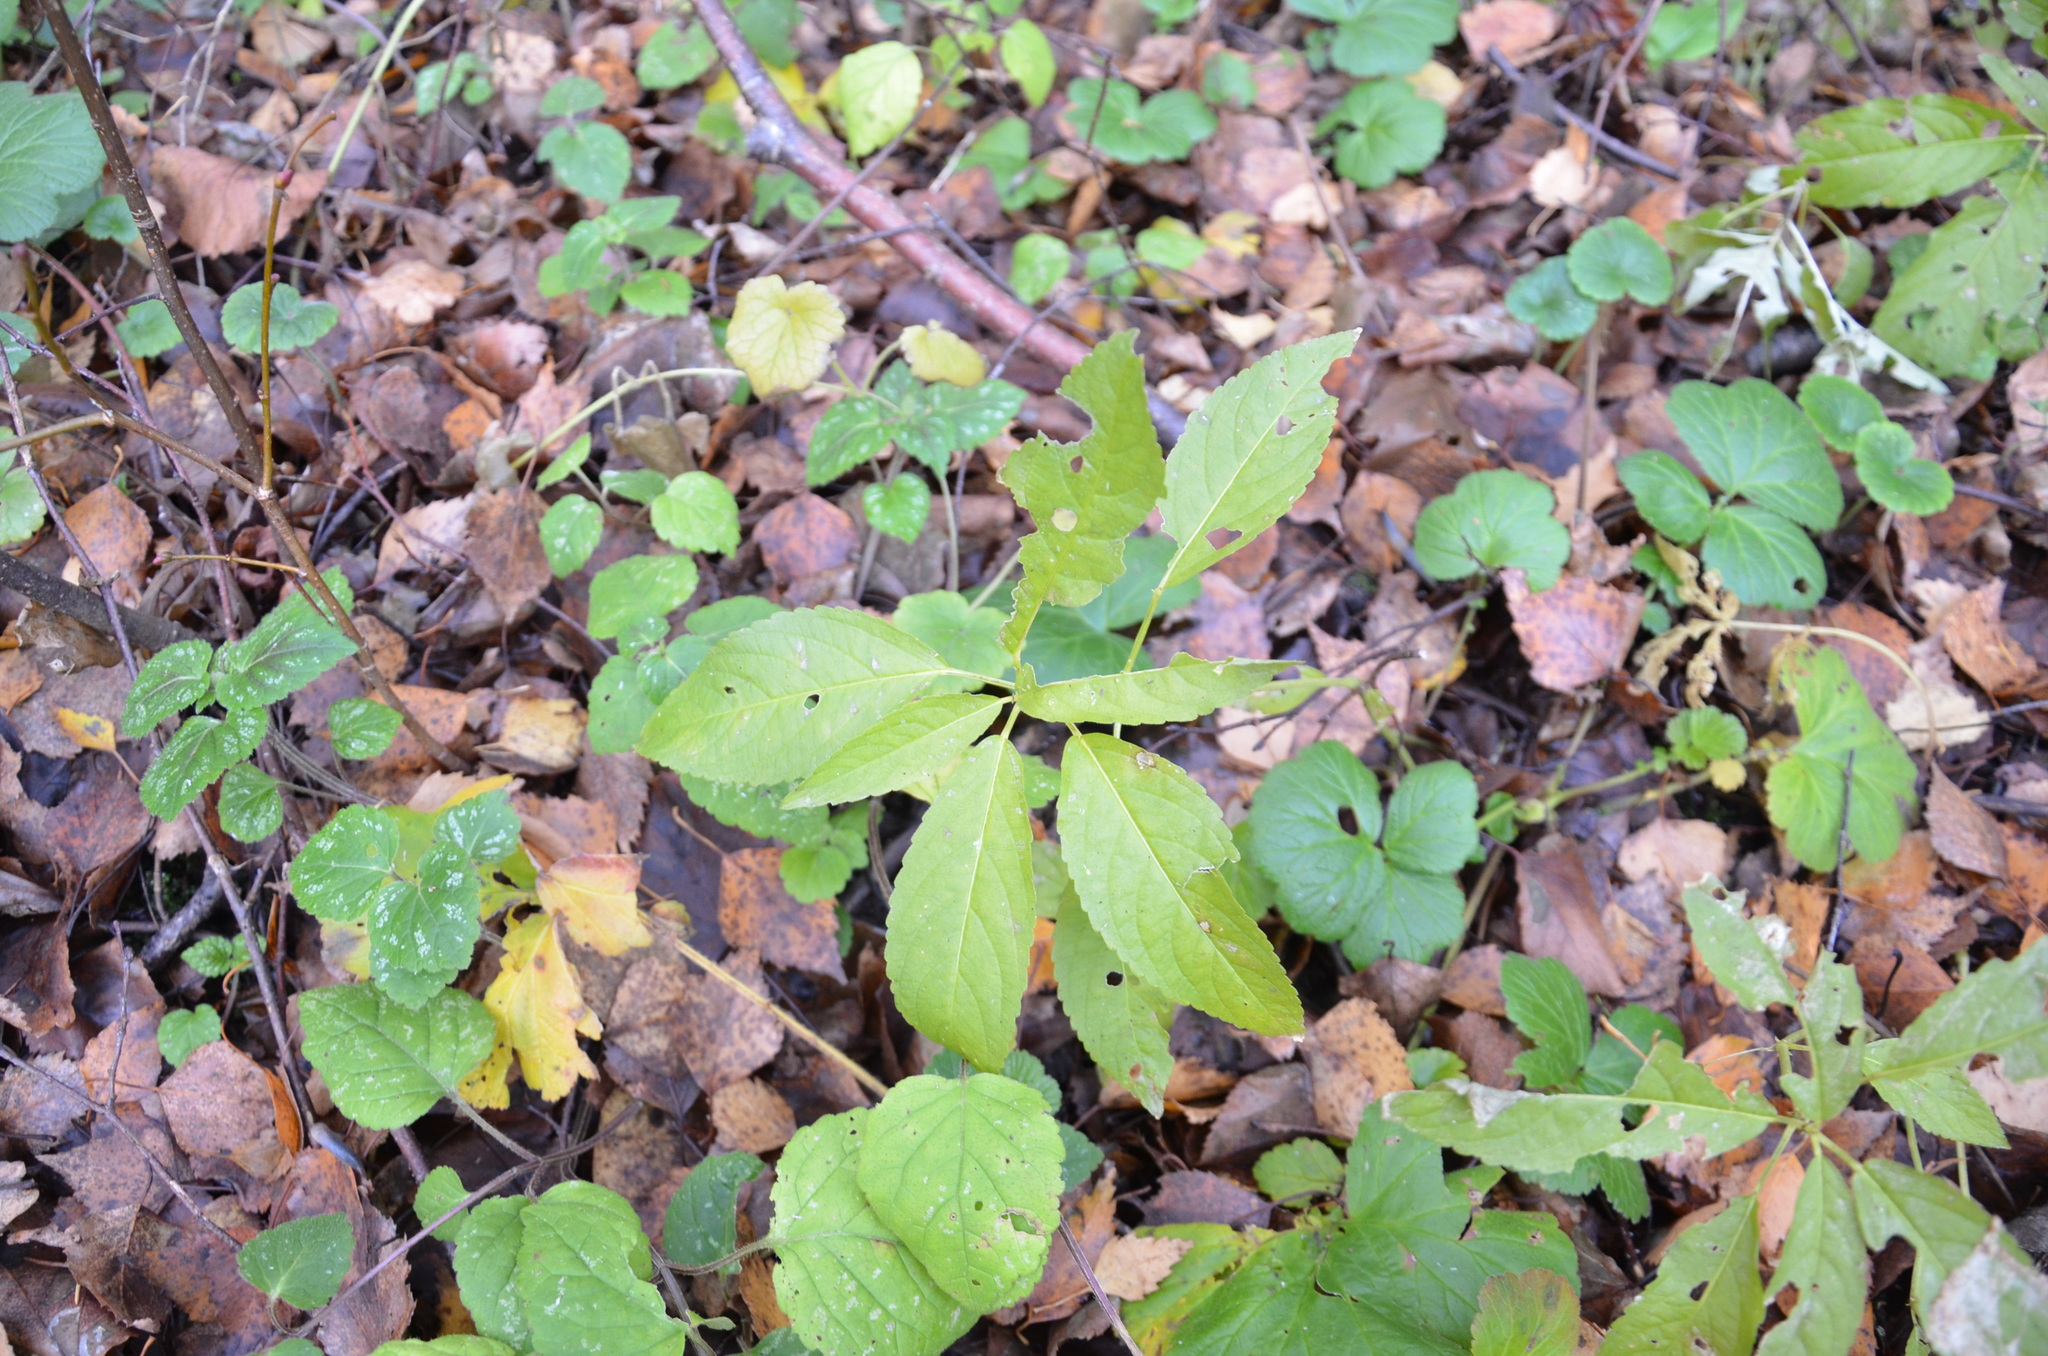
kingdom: Plantae
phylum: Tracheophyta
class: Magnoliopsida
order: Malpighiales
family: Euphorbiaceae
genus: Mercurialis
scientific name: Mercurialis perennis
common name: Dog mercury
